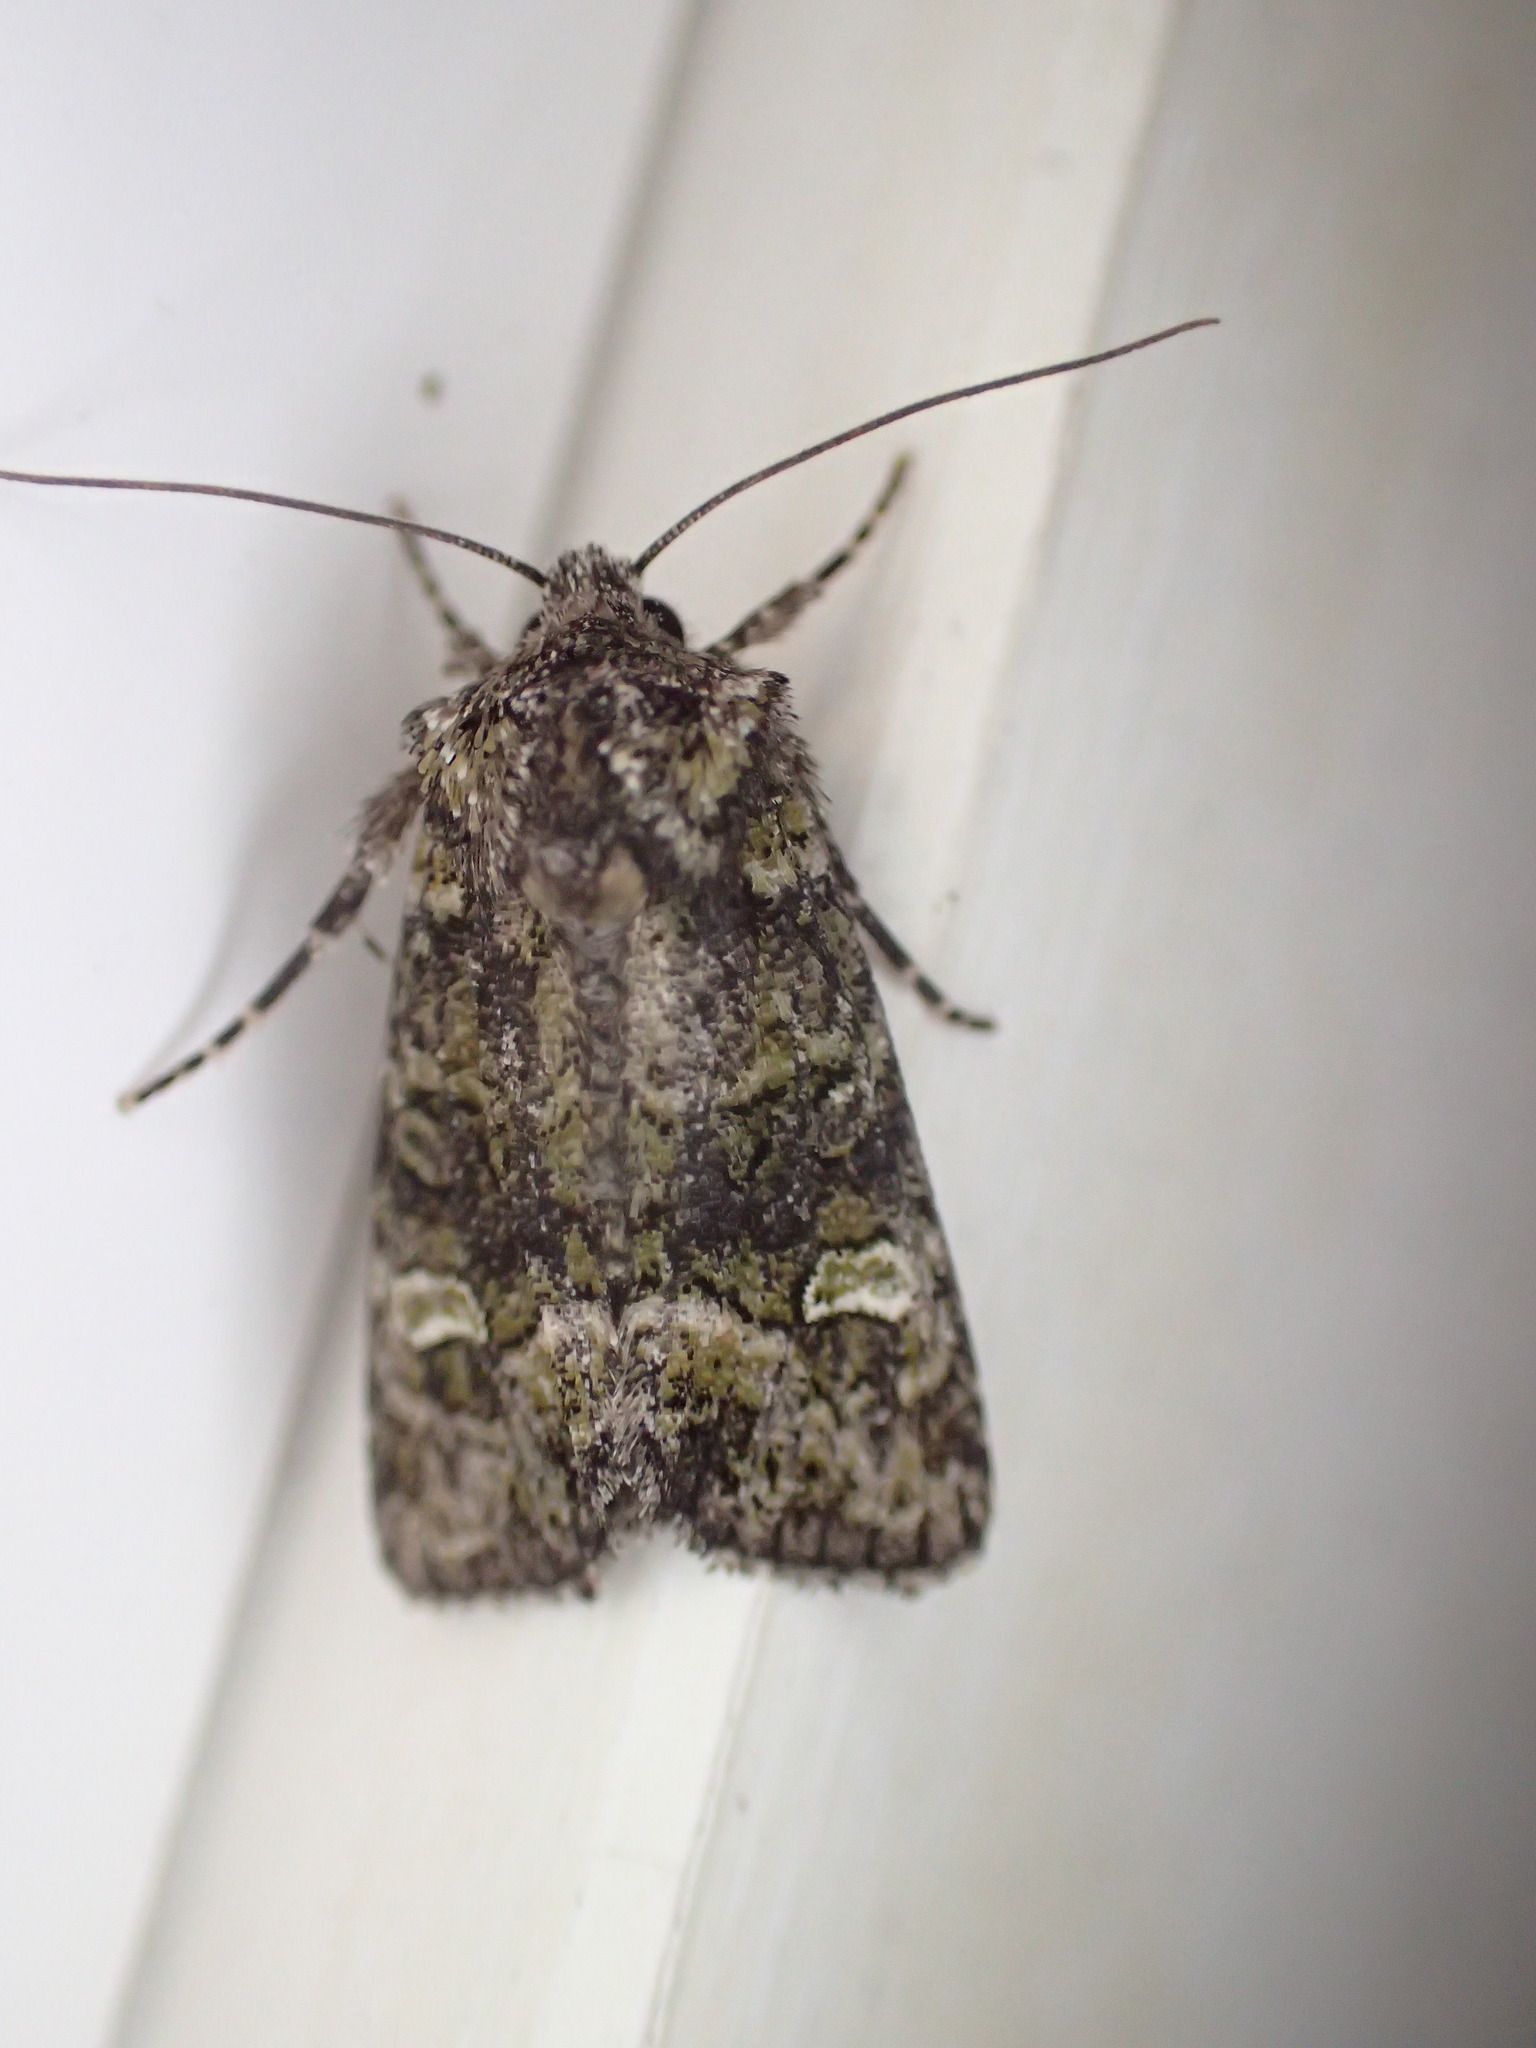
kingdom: Animalia
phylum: Arthropoda
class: Insecta
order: Lepidoptera
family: Noctuidae
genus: Lacinipolia
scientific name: Lacinipolia olivacea
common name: Olive arches moth
